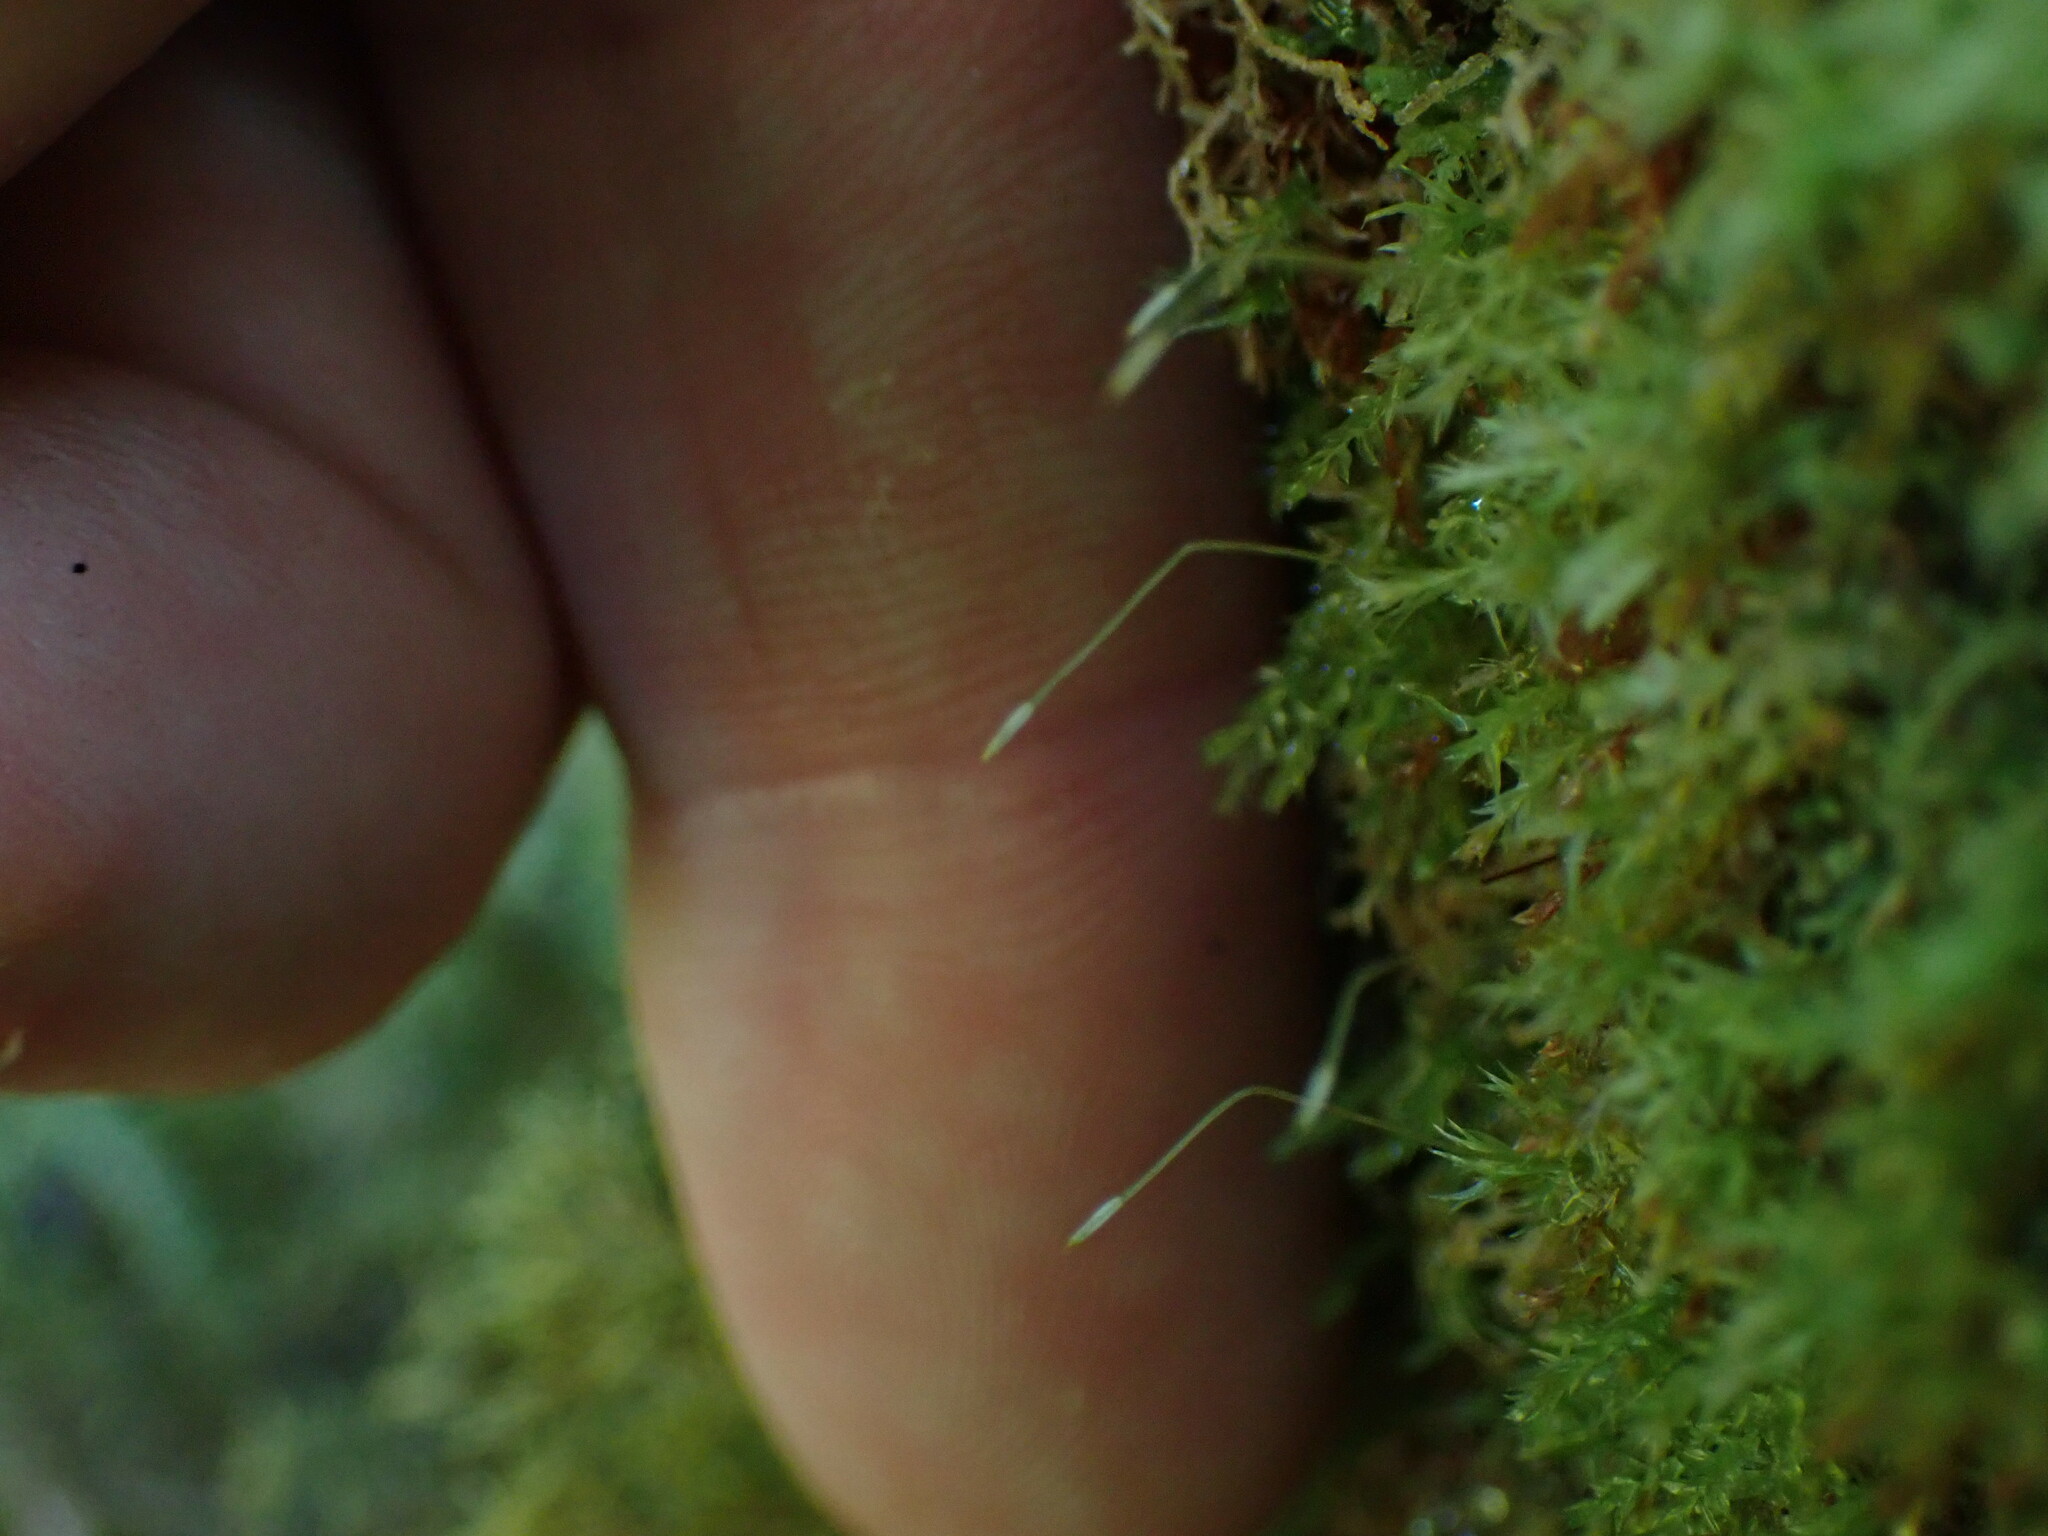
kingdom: Plantae
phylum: Bryophyta
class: Polytrichopsida
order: Tetraphidales
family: Tetraphidaceae
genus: Tetraphis
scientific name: Tetraphis geniculata
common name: Geniculate four-toothed moss
